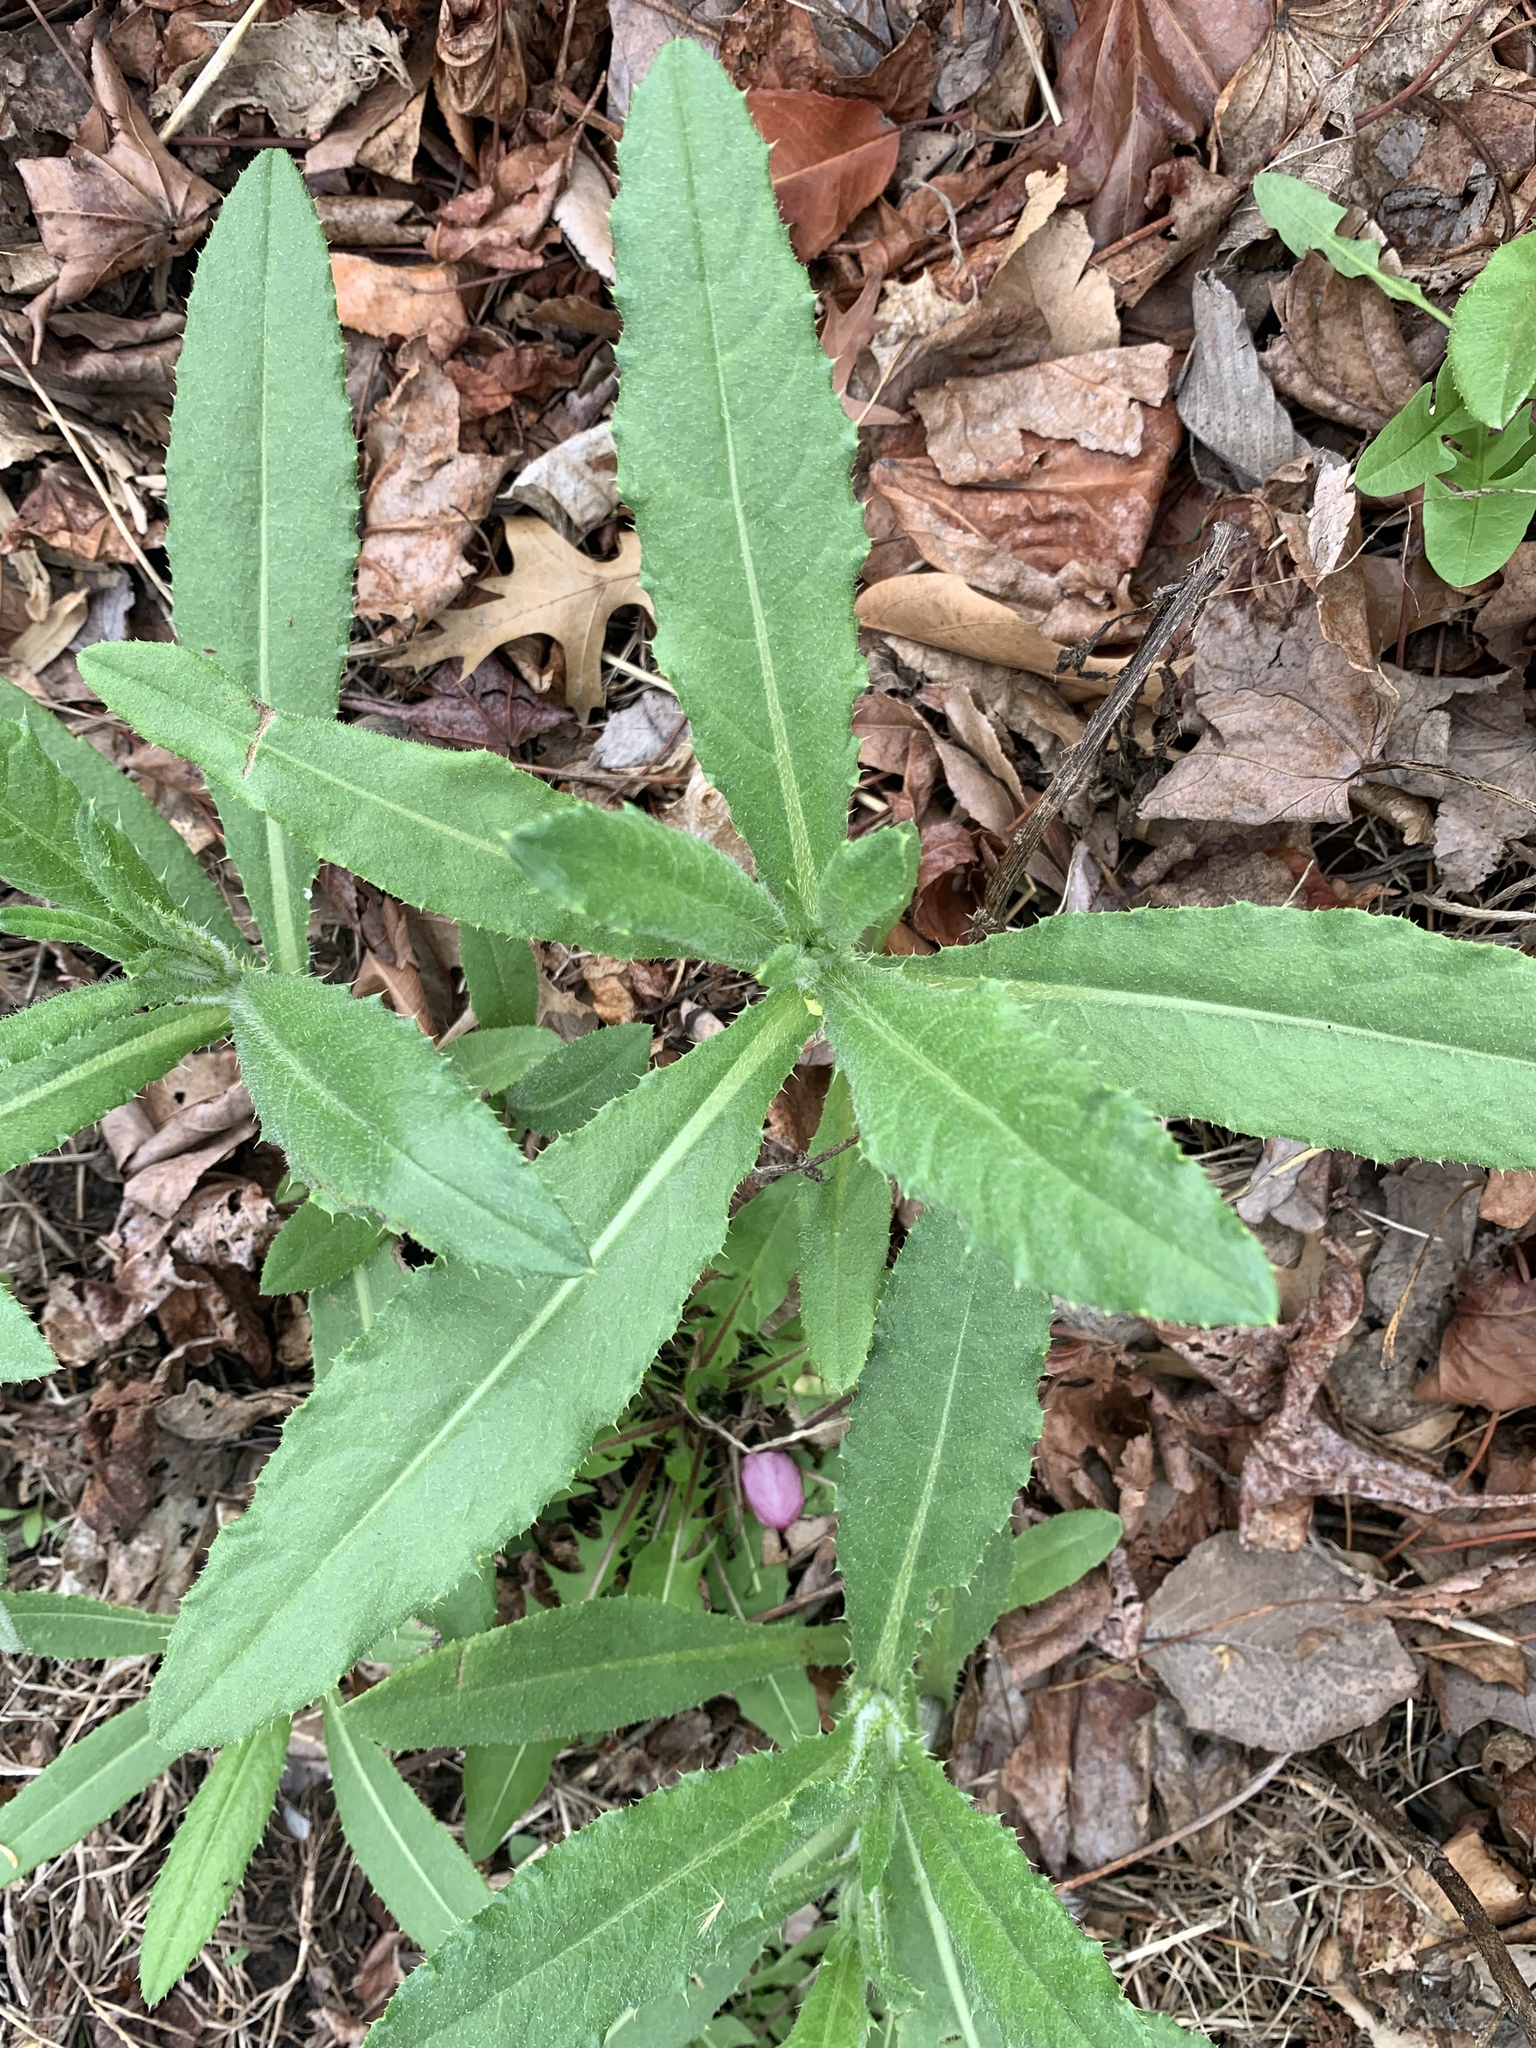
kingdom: Plantae
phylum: Tracheophyta
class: Magnoliopsida
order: Asterales
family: Asteraceae
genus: Cirsium
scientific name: Cirsium arvense
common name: Creeping thistle
